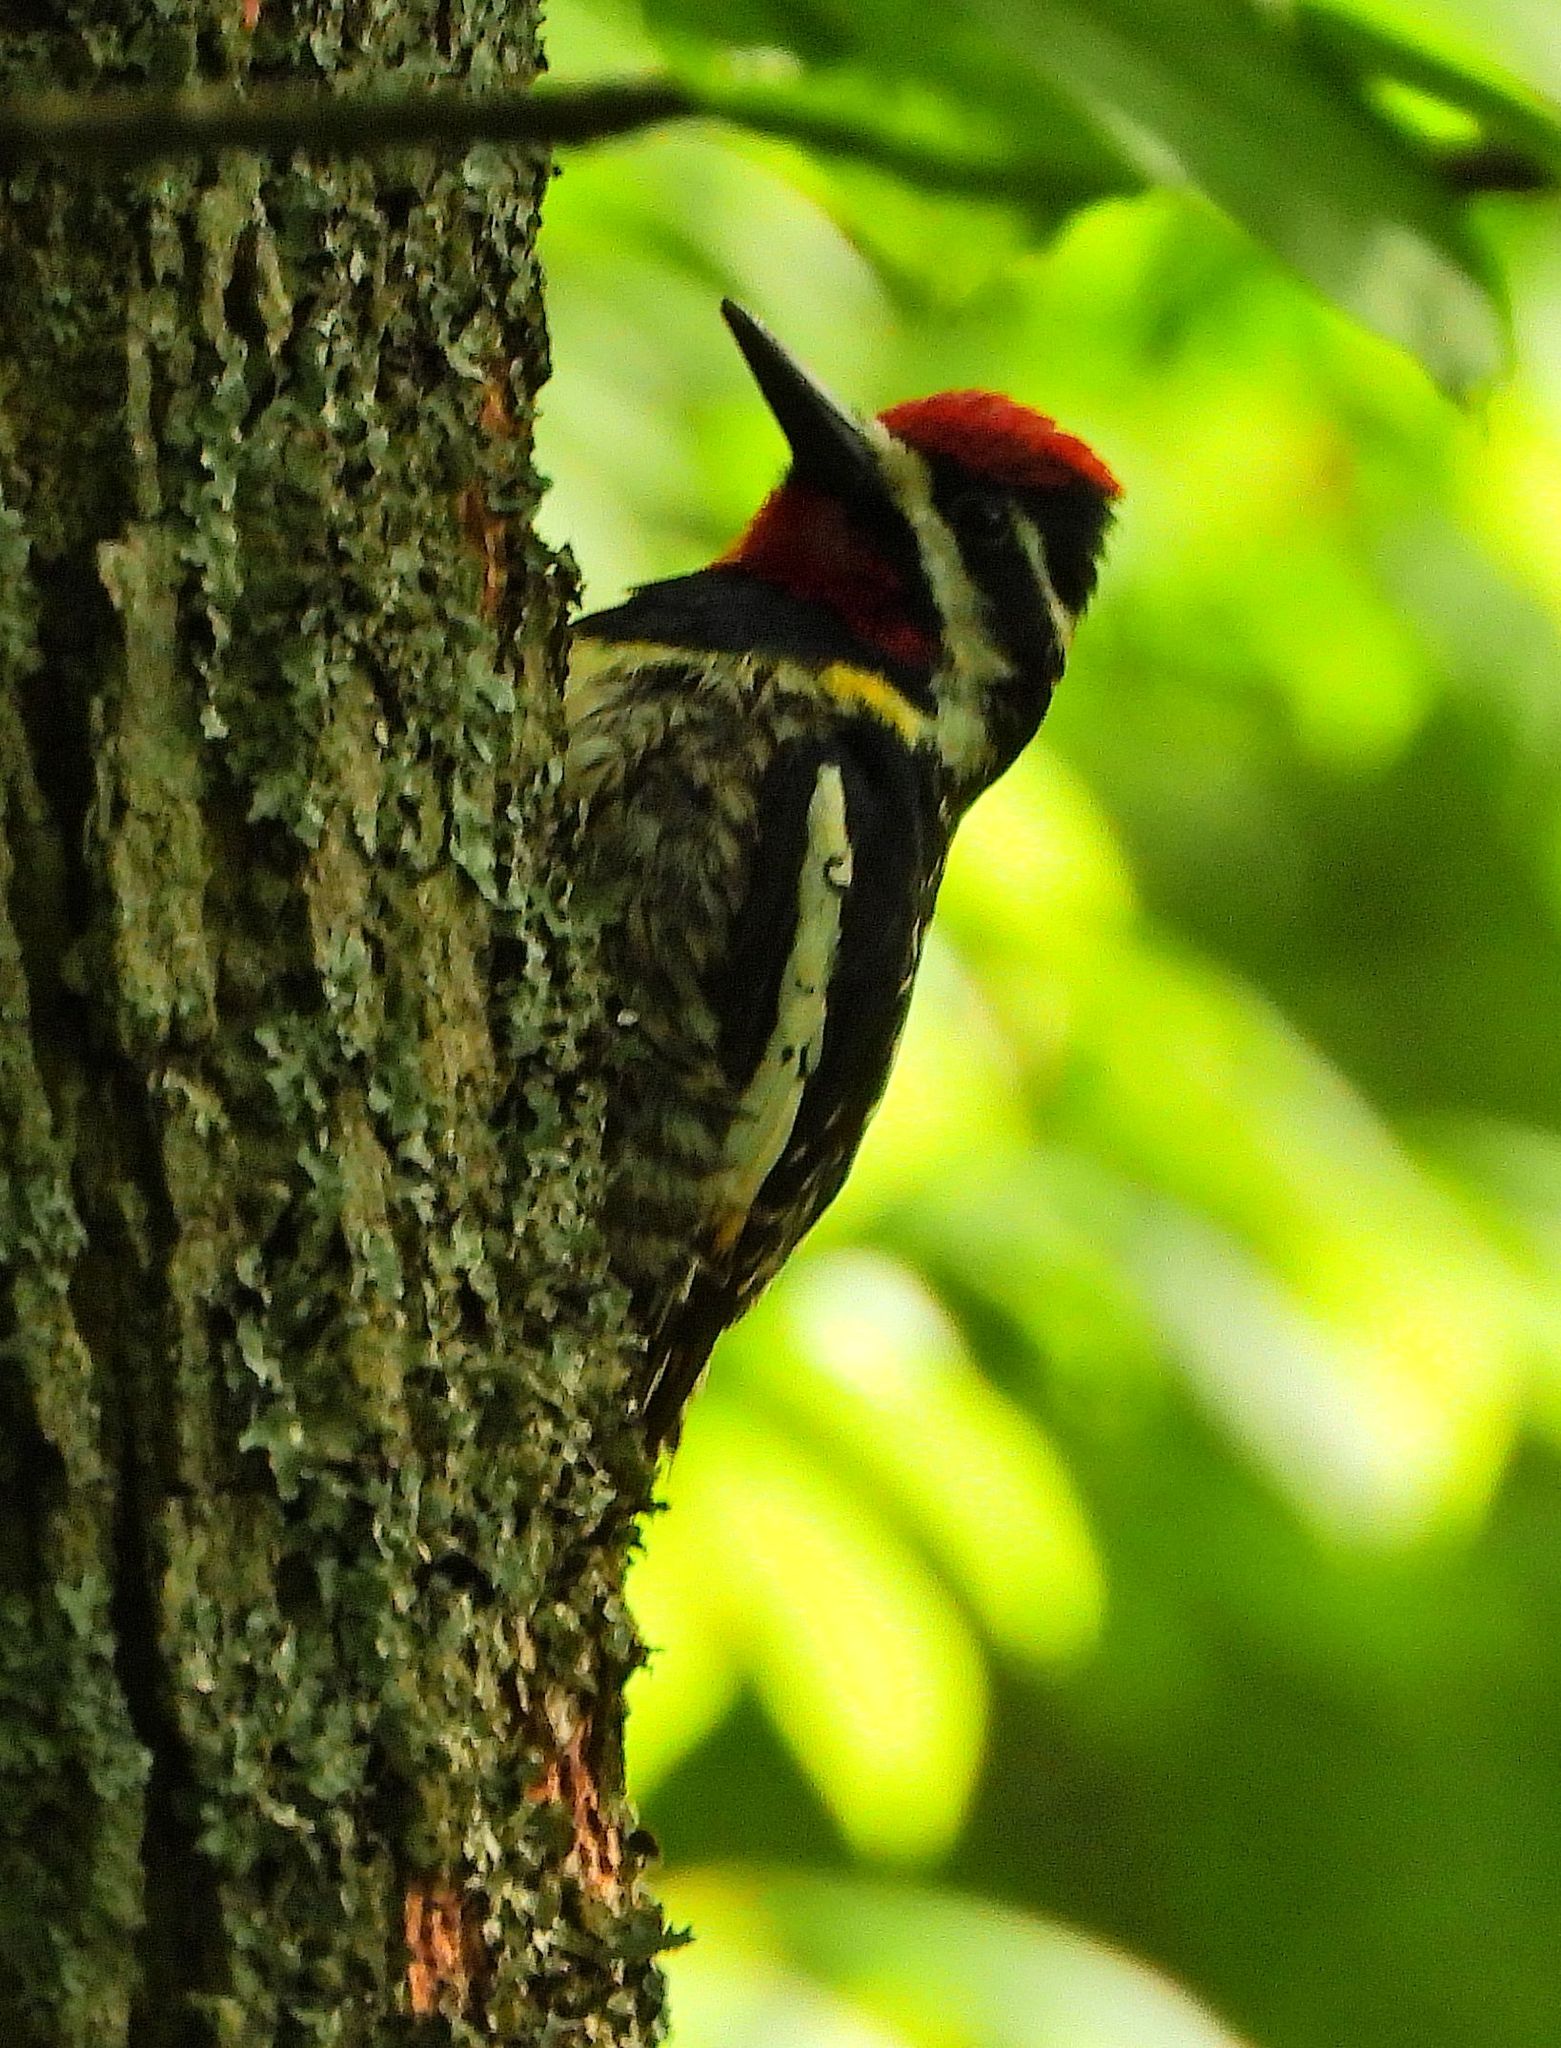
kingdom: Animalia
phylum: Chordata
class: Aves
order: Piciformes
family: Picidae
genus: Sphyrapicus
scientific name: Sphyrapicus varius
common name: Yellow-bellied sapsucker
